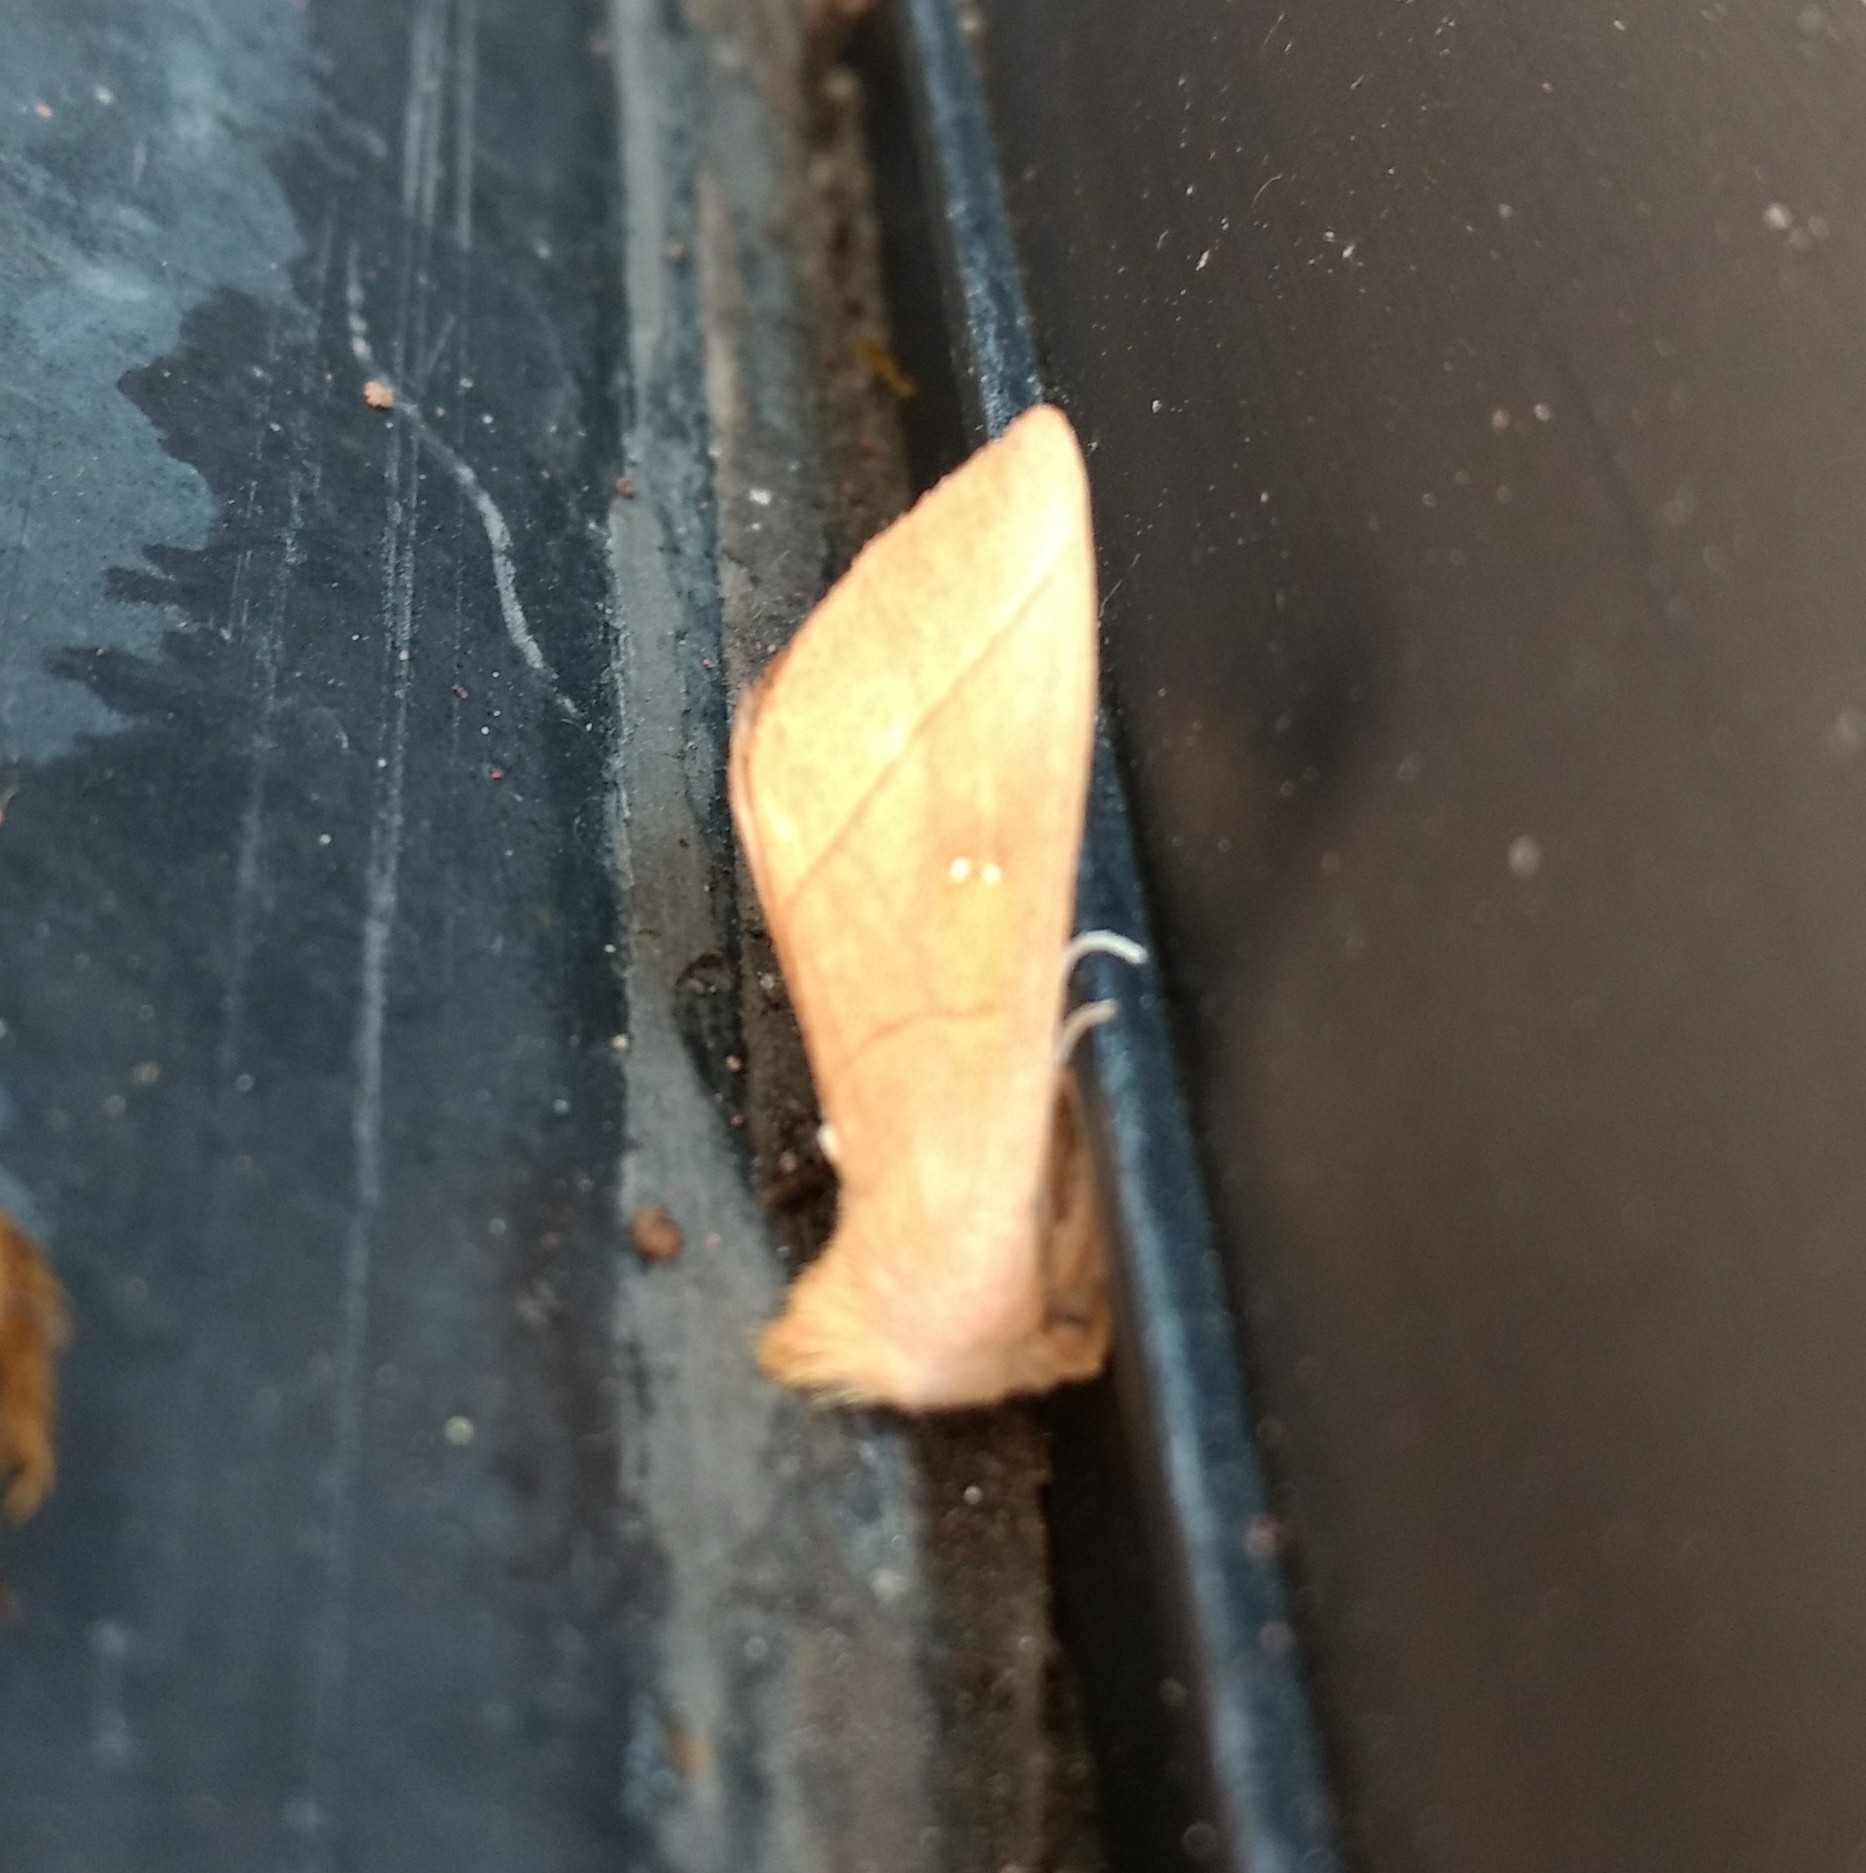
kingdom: Animalia
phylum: Arthropoda
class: Insecta
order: Lepidoptera
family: Notodontidae
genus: Nadata
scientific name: Nadata gibbosa
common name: White-dotted prominent
